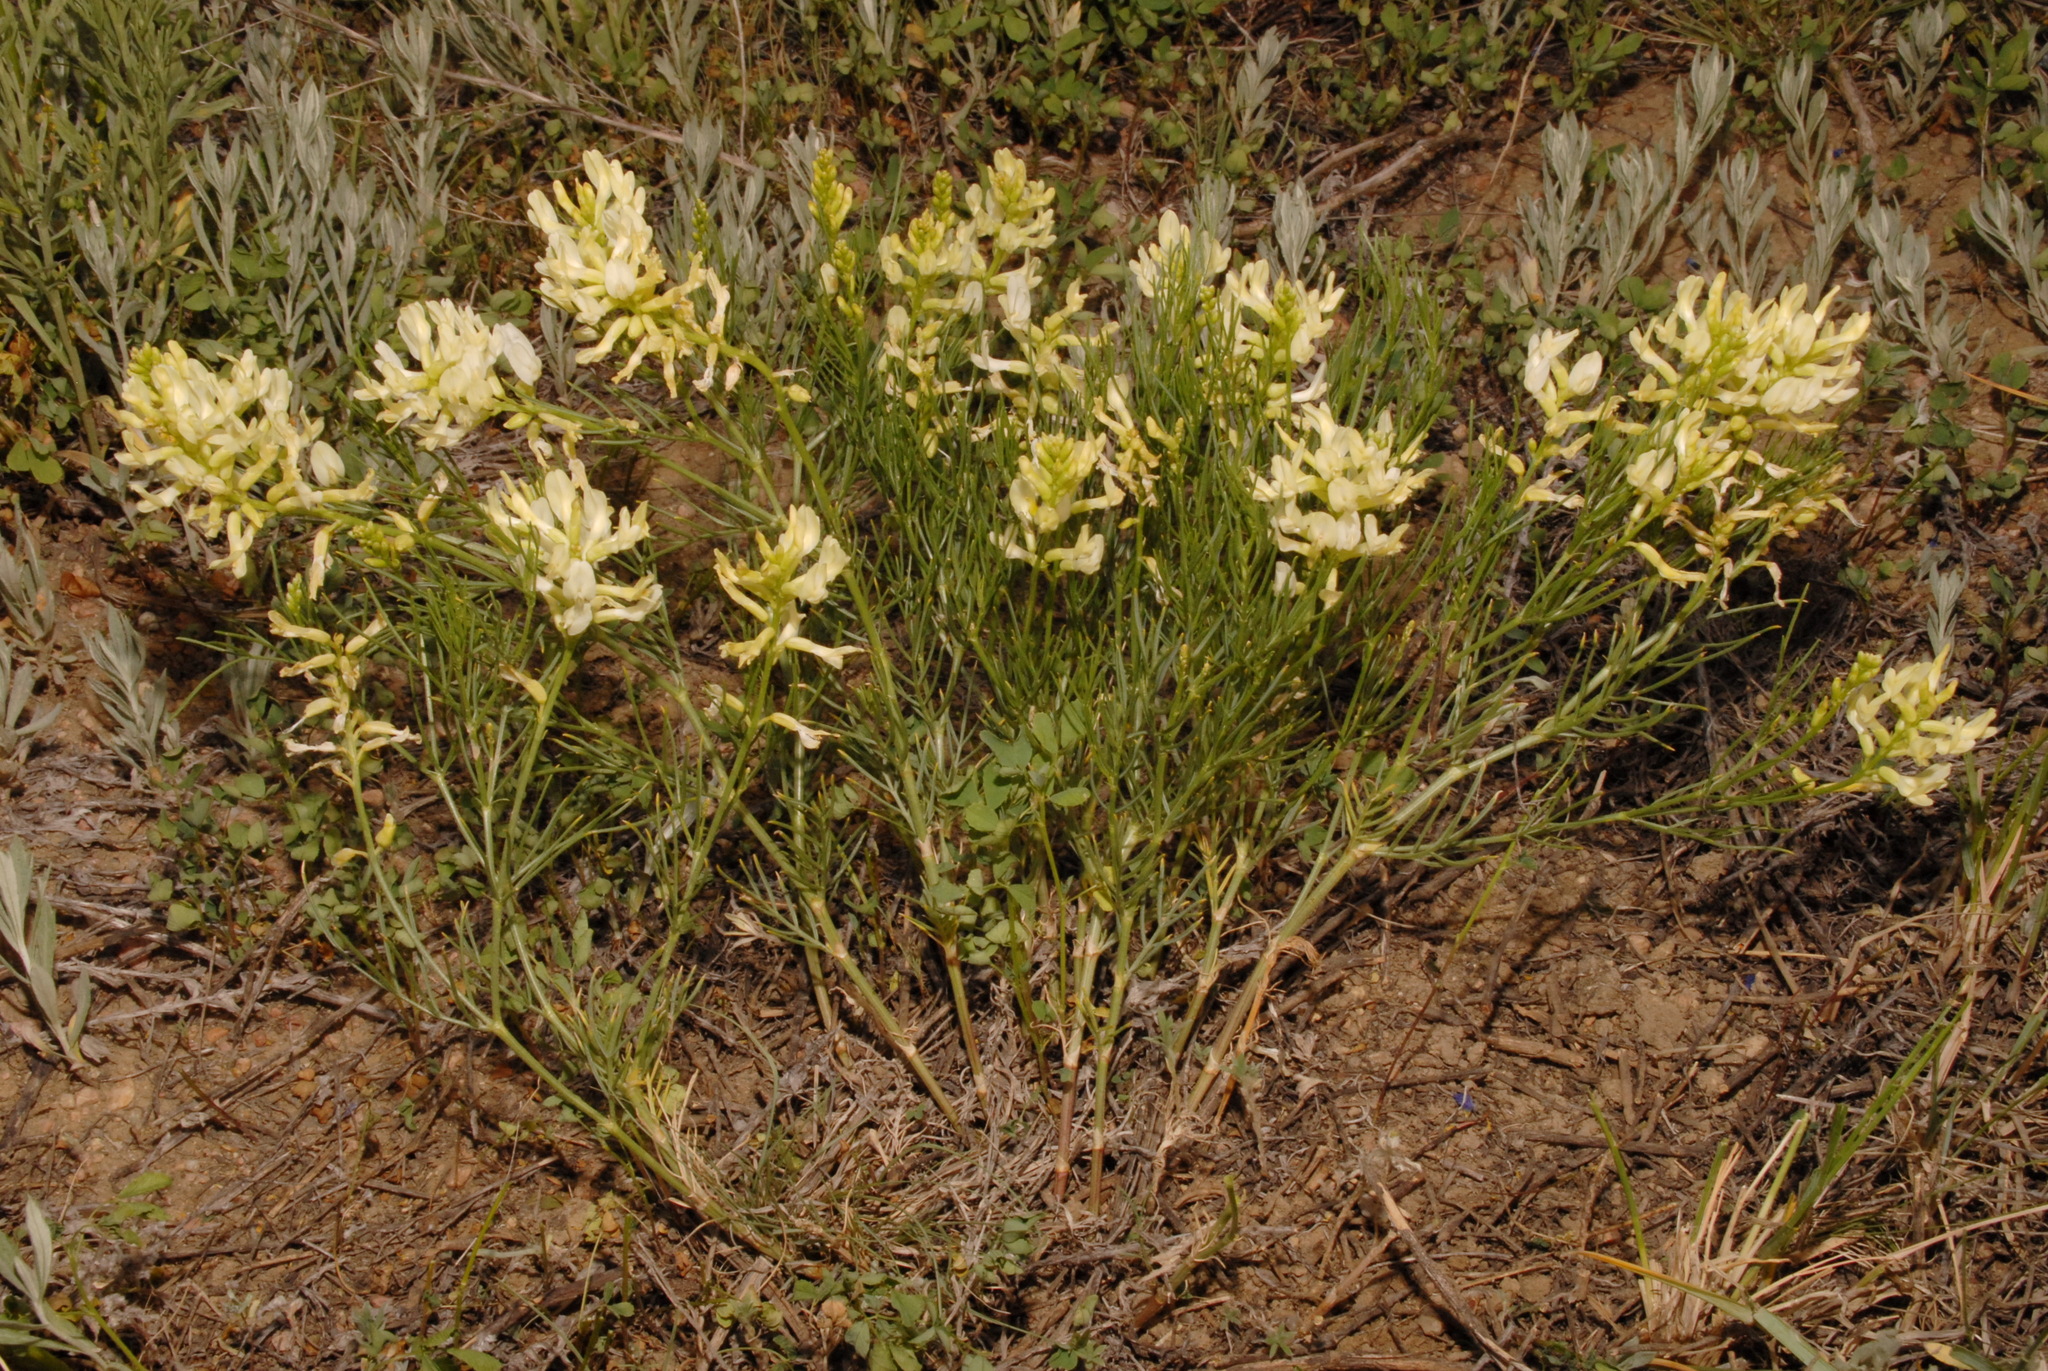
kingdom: Plantae
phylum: Tracheophyta
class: Magnoliopsida
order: Fabales
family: Fabaceae
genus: Astragalus
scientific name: Astragalus pectinatus
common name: Tine-leaf milk-vetch
